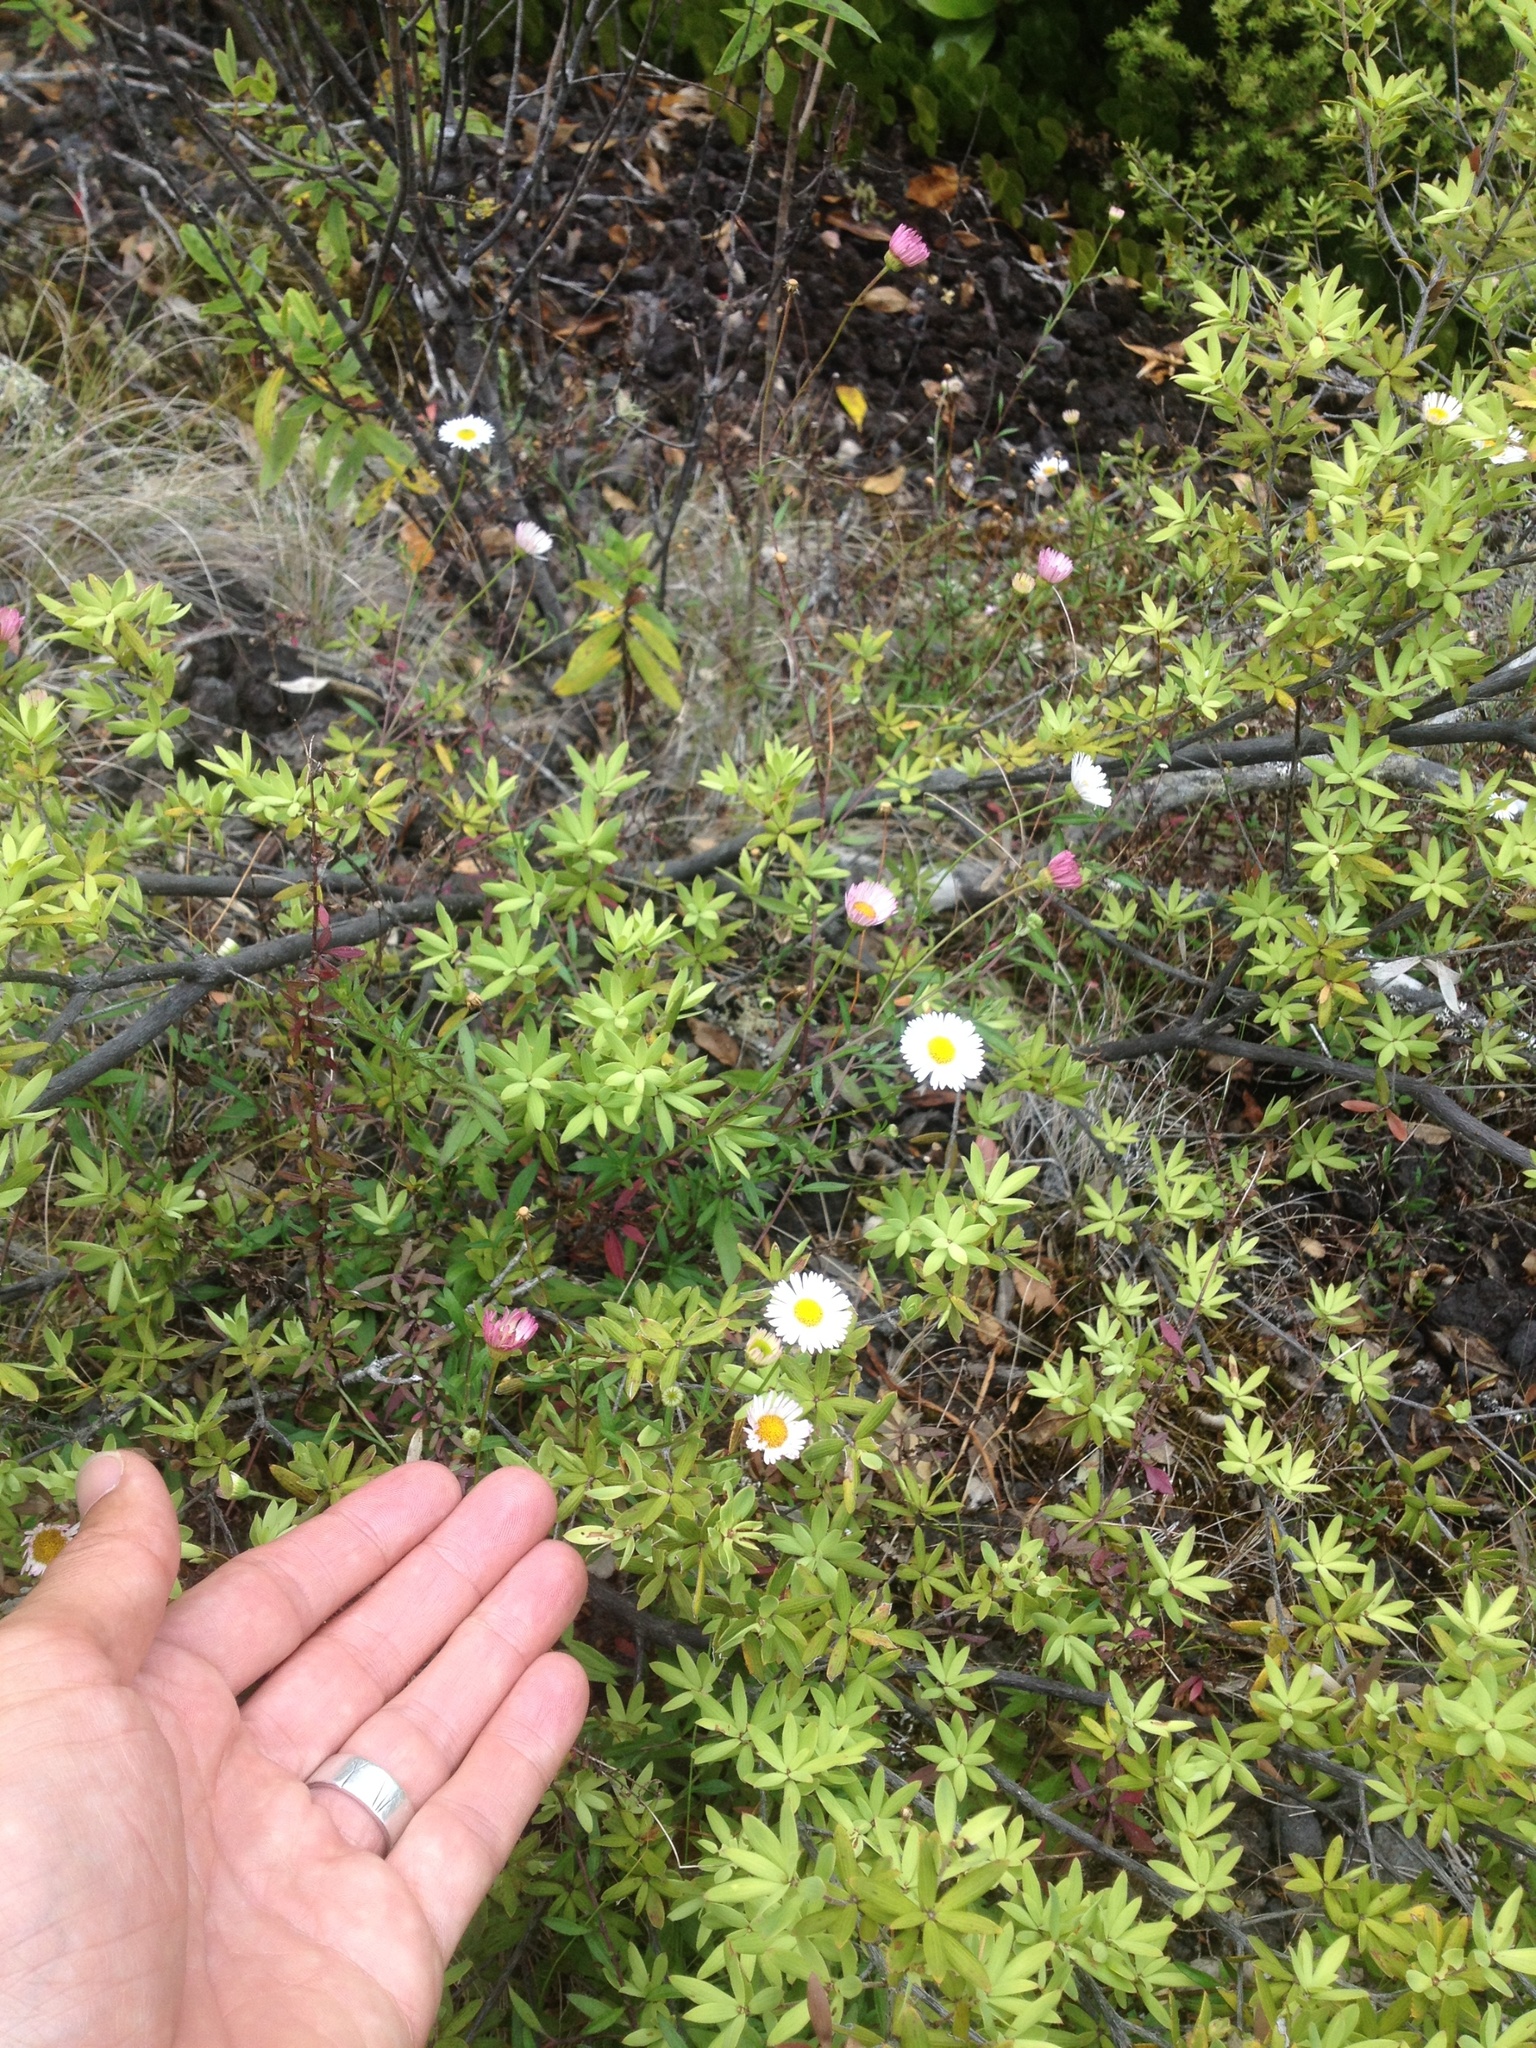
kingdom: Plantae
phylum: Tracheophyta
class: Magnoliopsida
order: Asterales
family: Asteraceae
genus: Erigeron
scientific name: Erigeron karvinskianus
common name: Mexican fleabane
